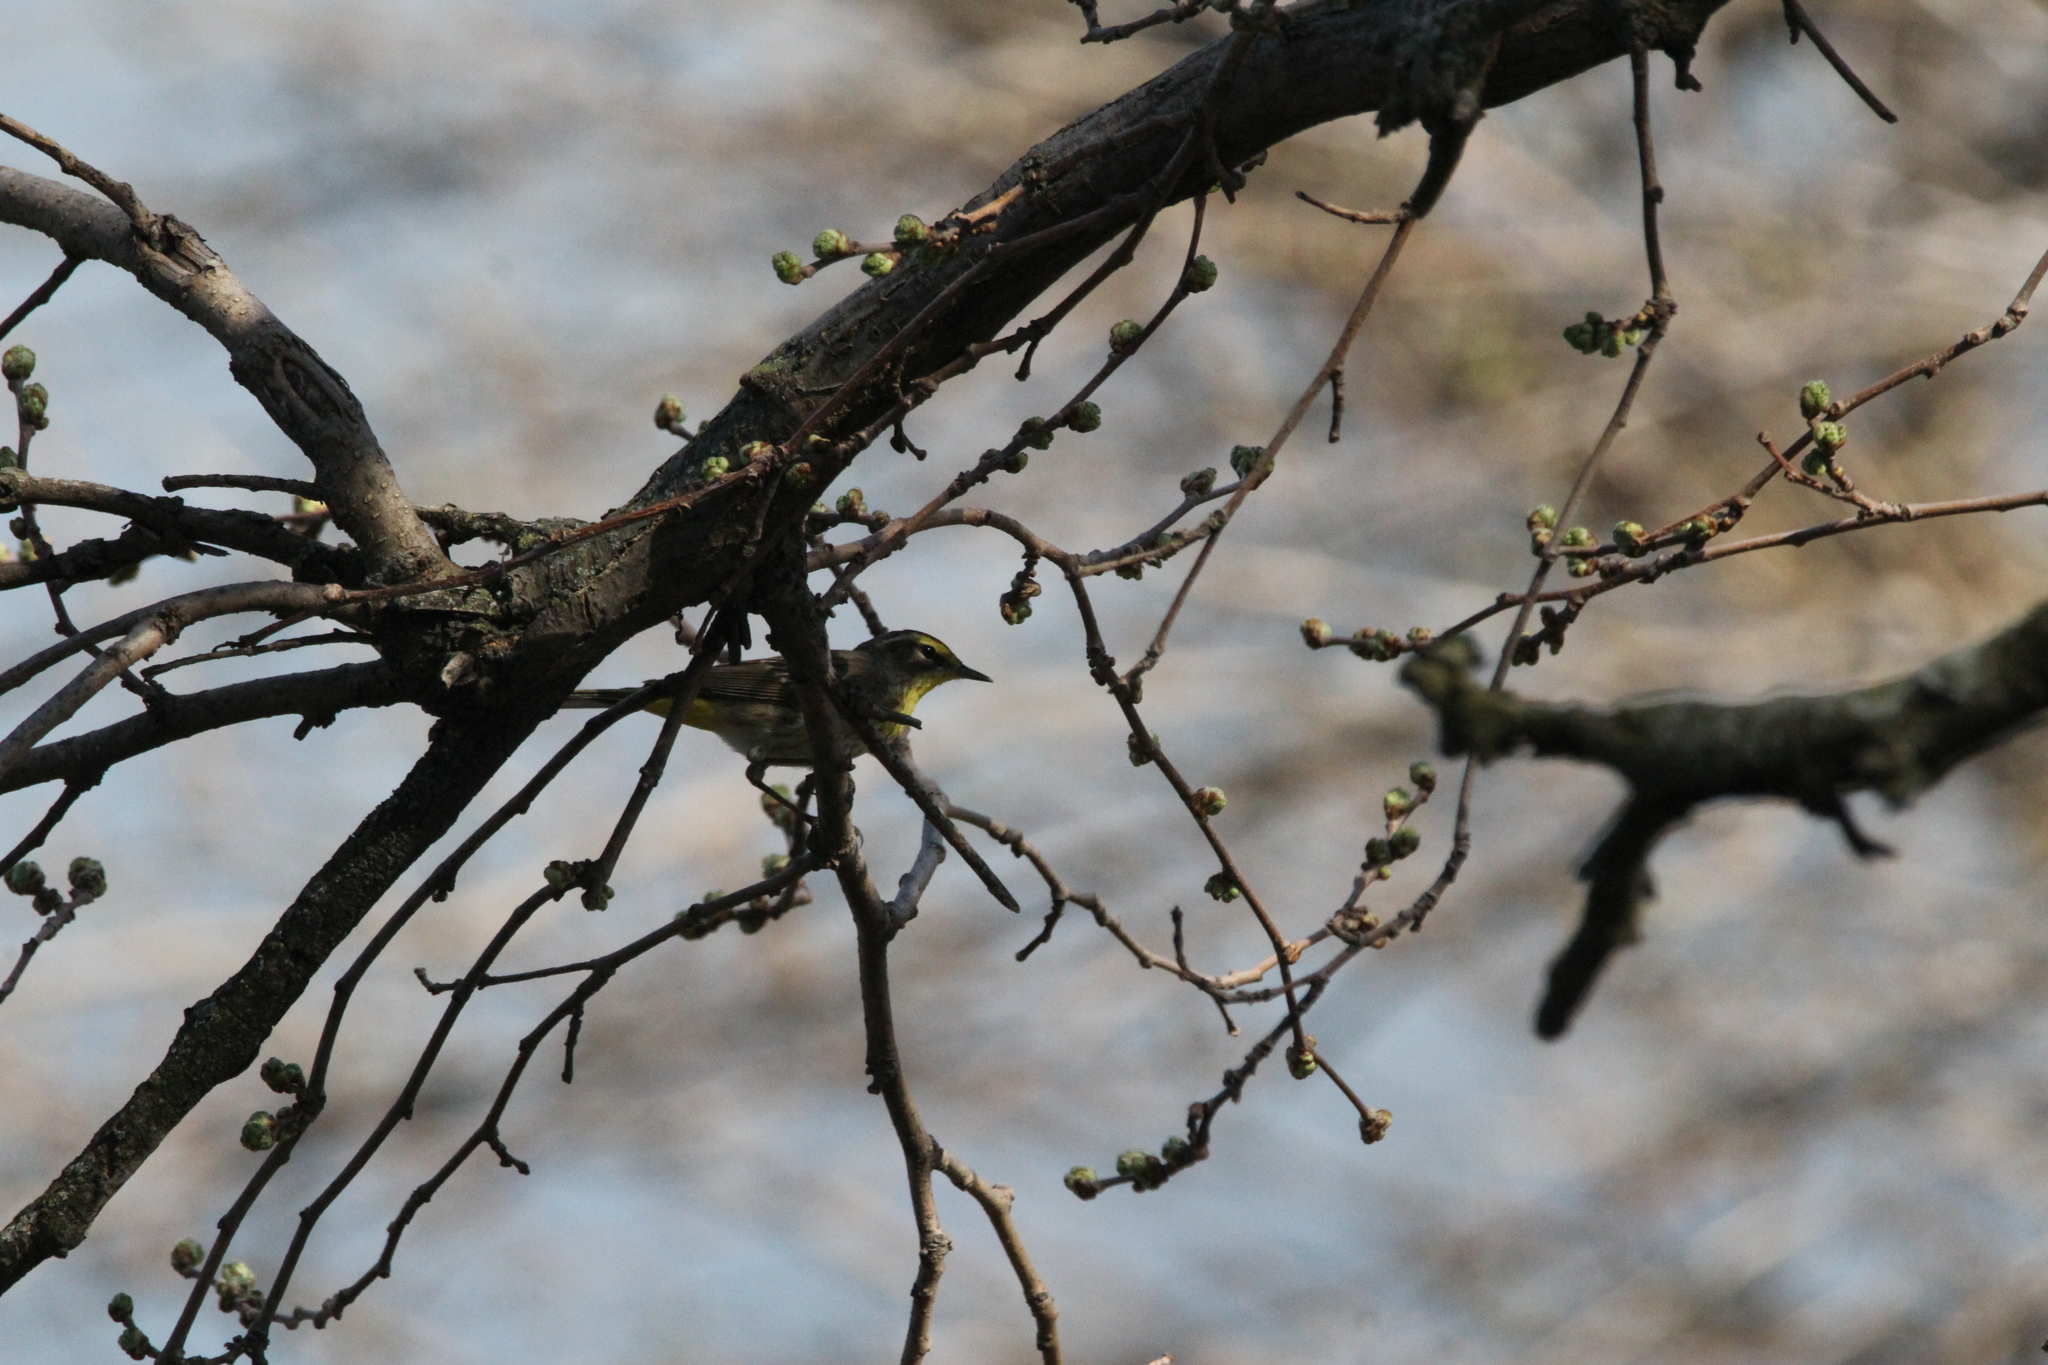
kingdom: Animalia
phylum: Chordata
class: Aves
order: Passeriformes
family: Parulidae
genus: Setophaga
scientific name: Setophaga palmarum
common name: Palm warbler
